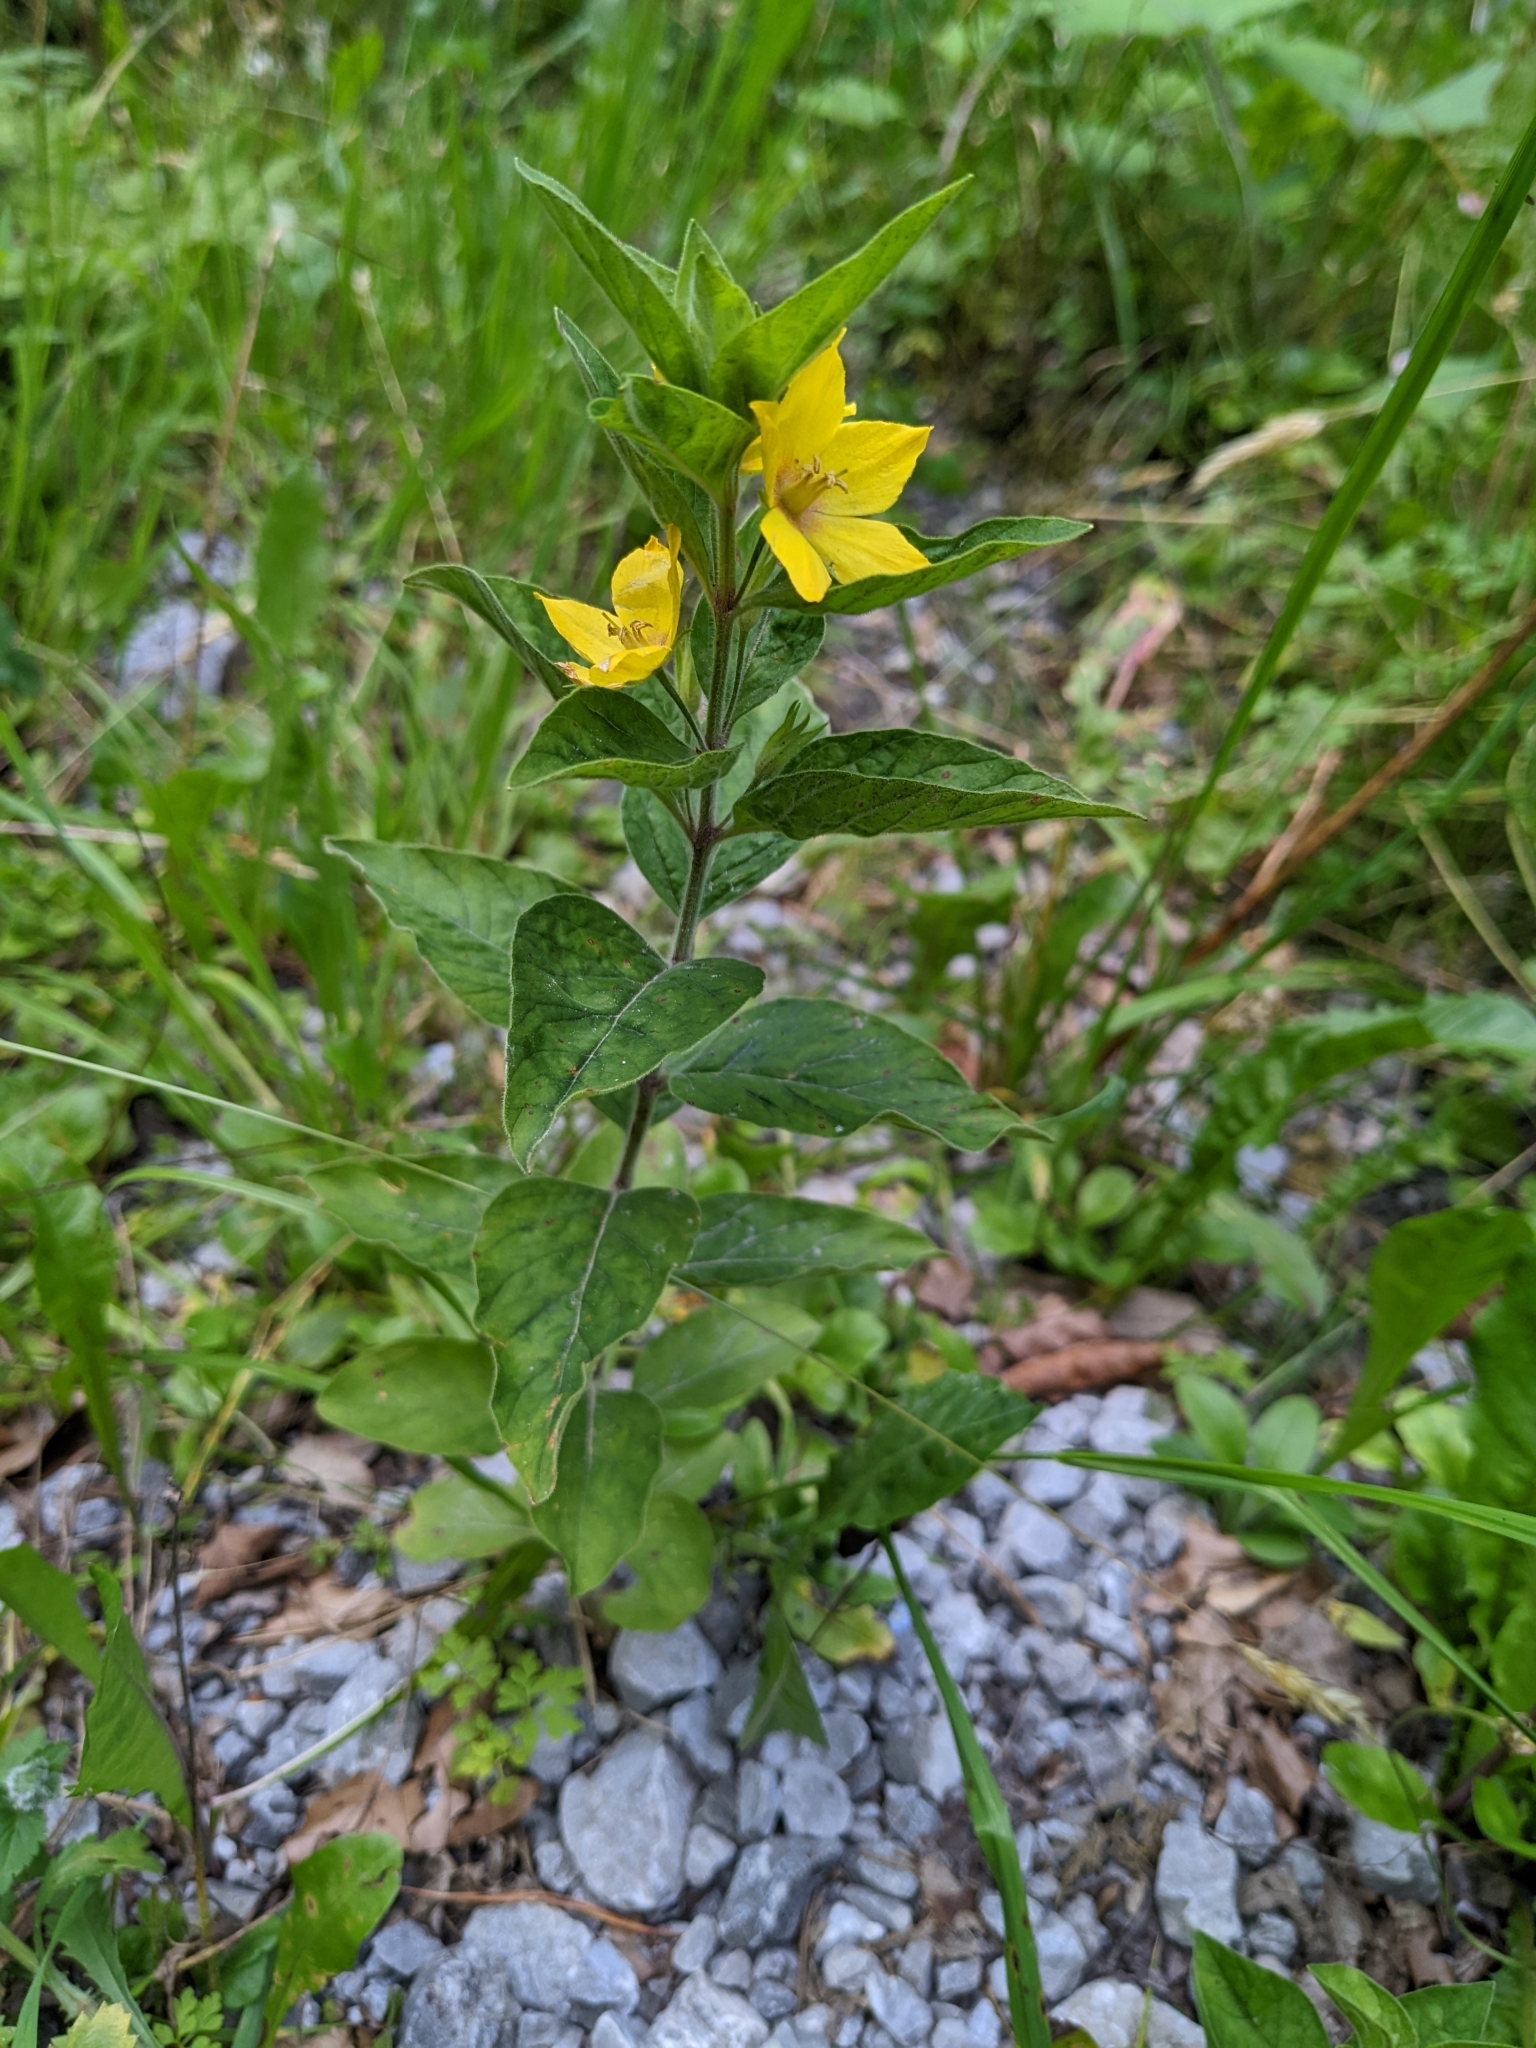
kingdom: Plantae
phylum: Tracheophyta
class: Magnoliopsida
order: Ericales
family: Primulaceae
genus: Lysimachia
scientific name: Lysimachia punctata
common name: Dotted loosestrife
